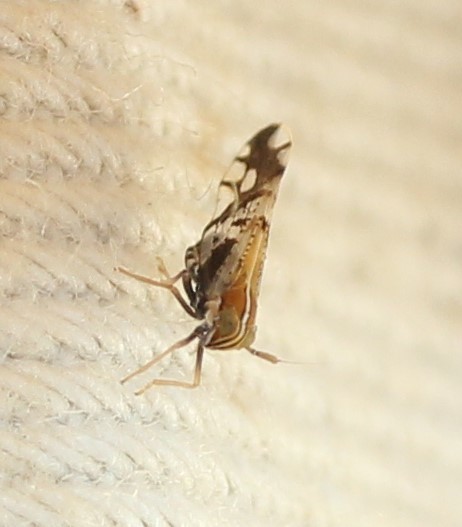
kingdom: Animalia
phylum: Arthropoda
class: Insecta
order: Hemiptera
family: Delphacidae
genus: Liburniella
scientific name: Liburniella ornata
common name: Ornate planthopper
